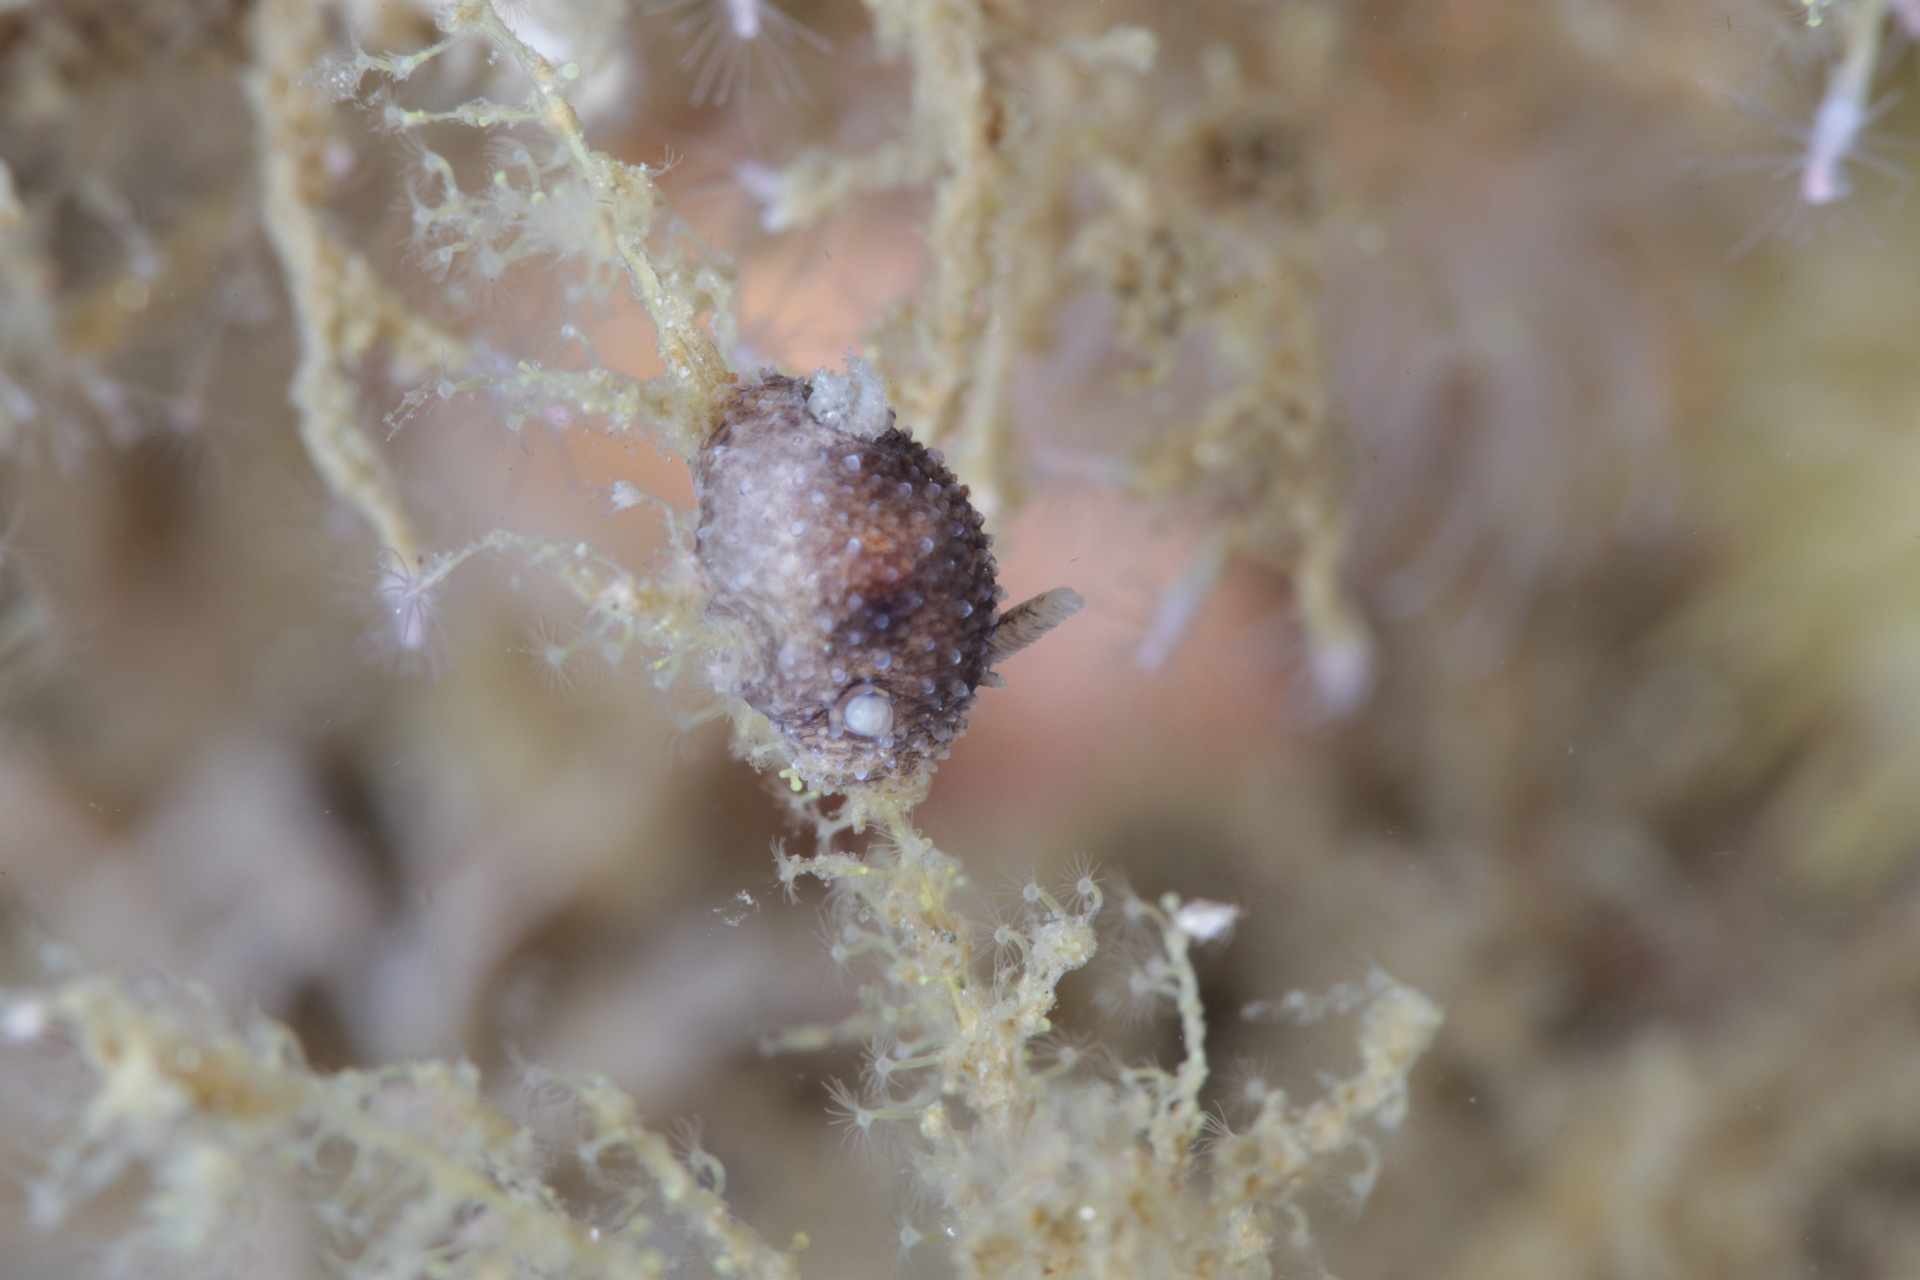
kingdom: Animalia
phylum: Mollusca
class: Gastropoda
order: Nudibranchia
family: Onchidorididae
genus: Acanthodoris
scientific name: Acanthodoris pilosa
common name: Hairy spiny doris
